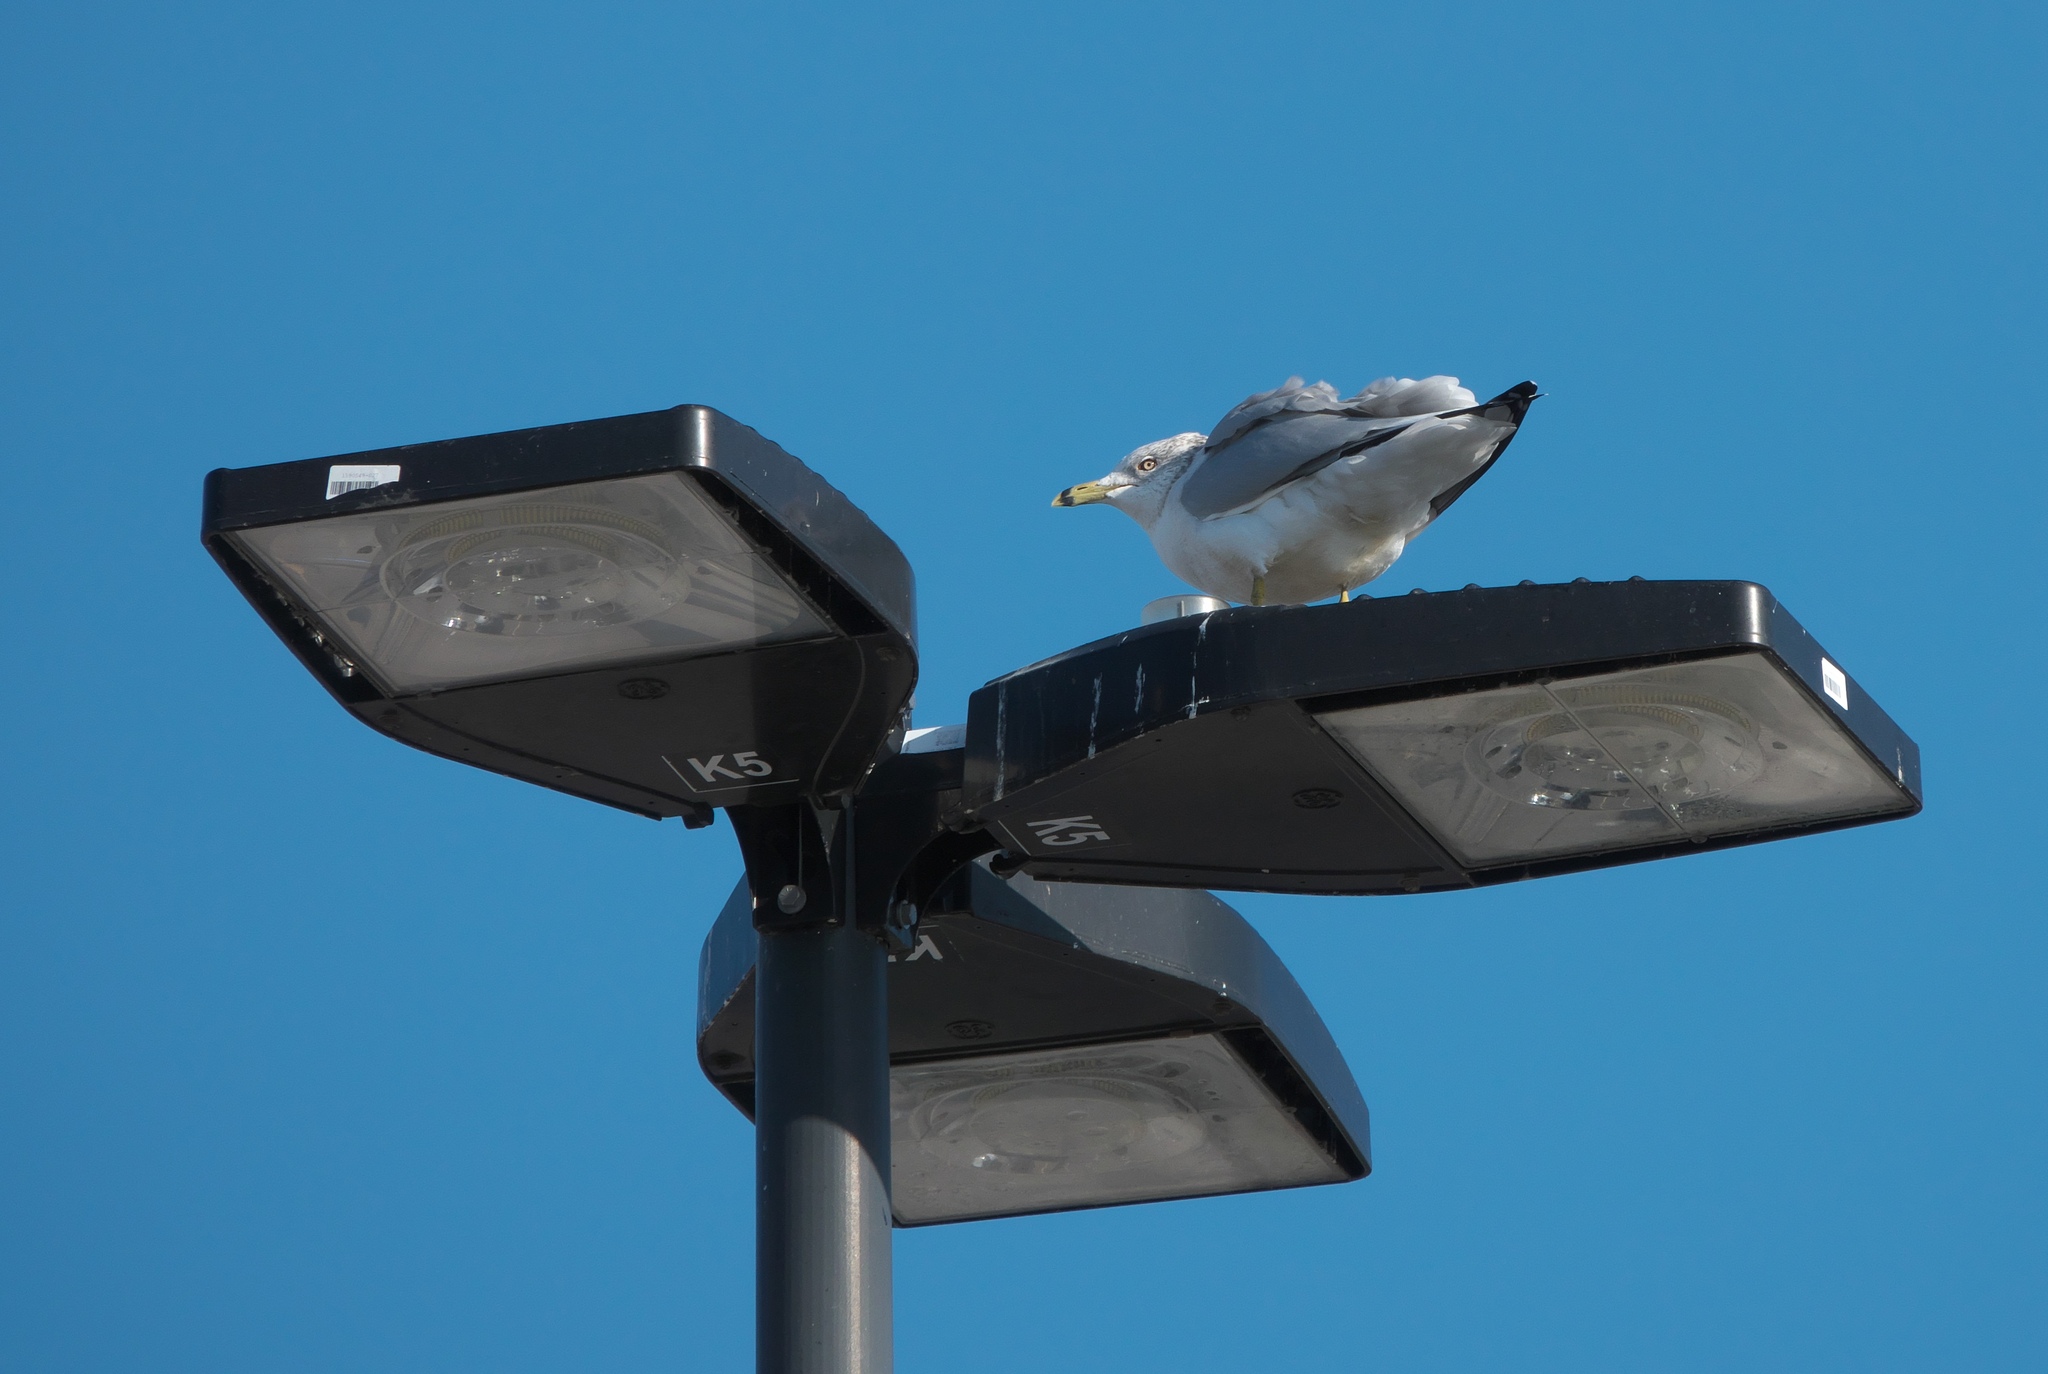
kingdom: Animalia
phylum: Chordata
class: Aves
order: Charadriiformes
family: Laridae
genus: Larus
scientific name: Larus delawarensis
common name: Ring-billed gull
